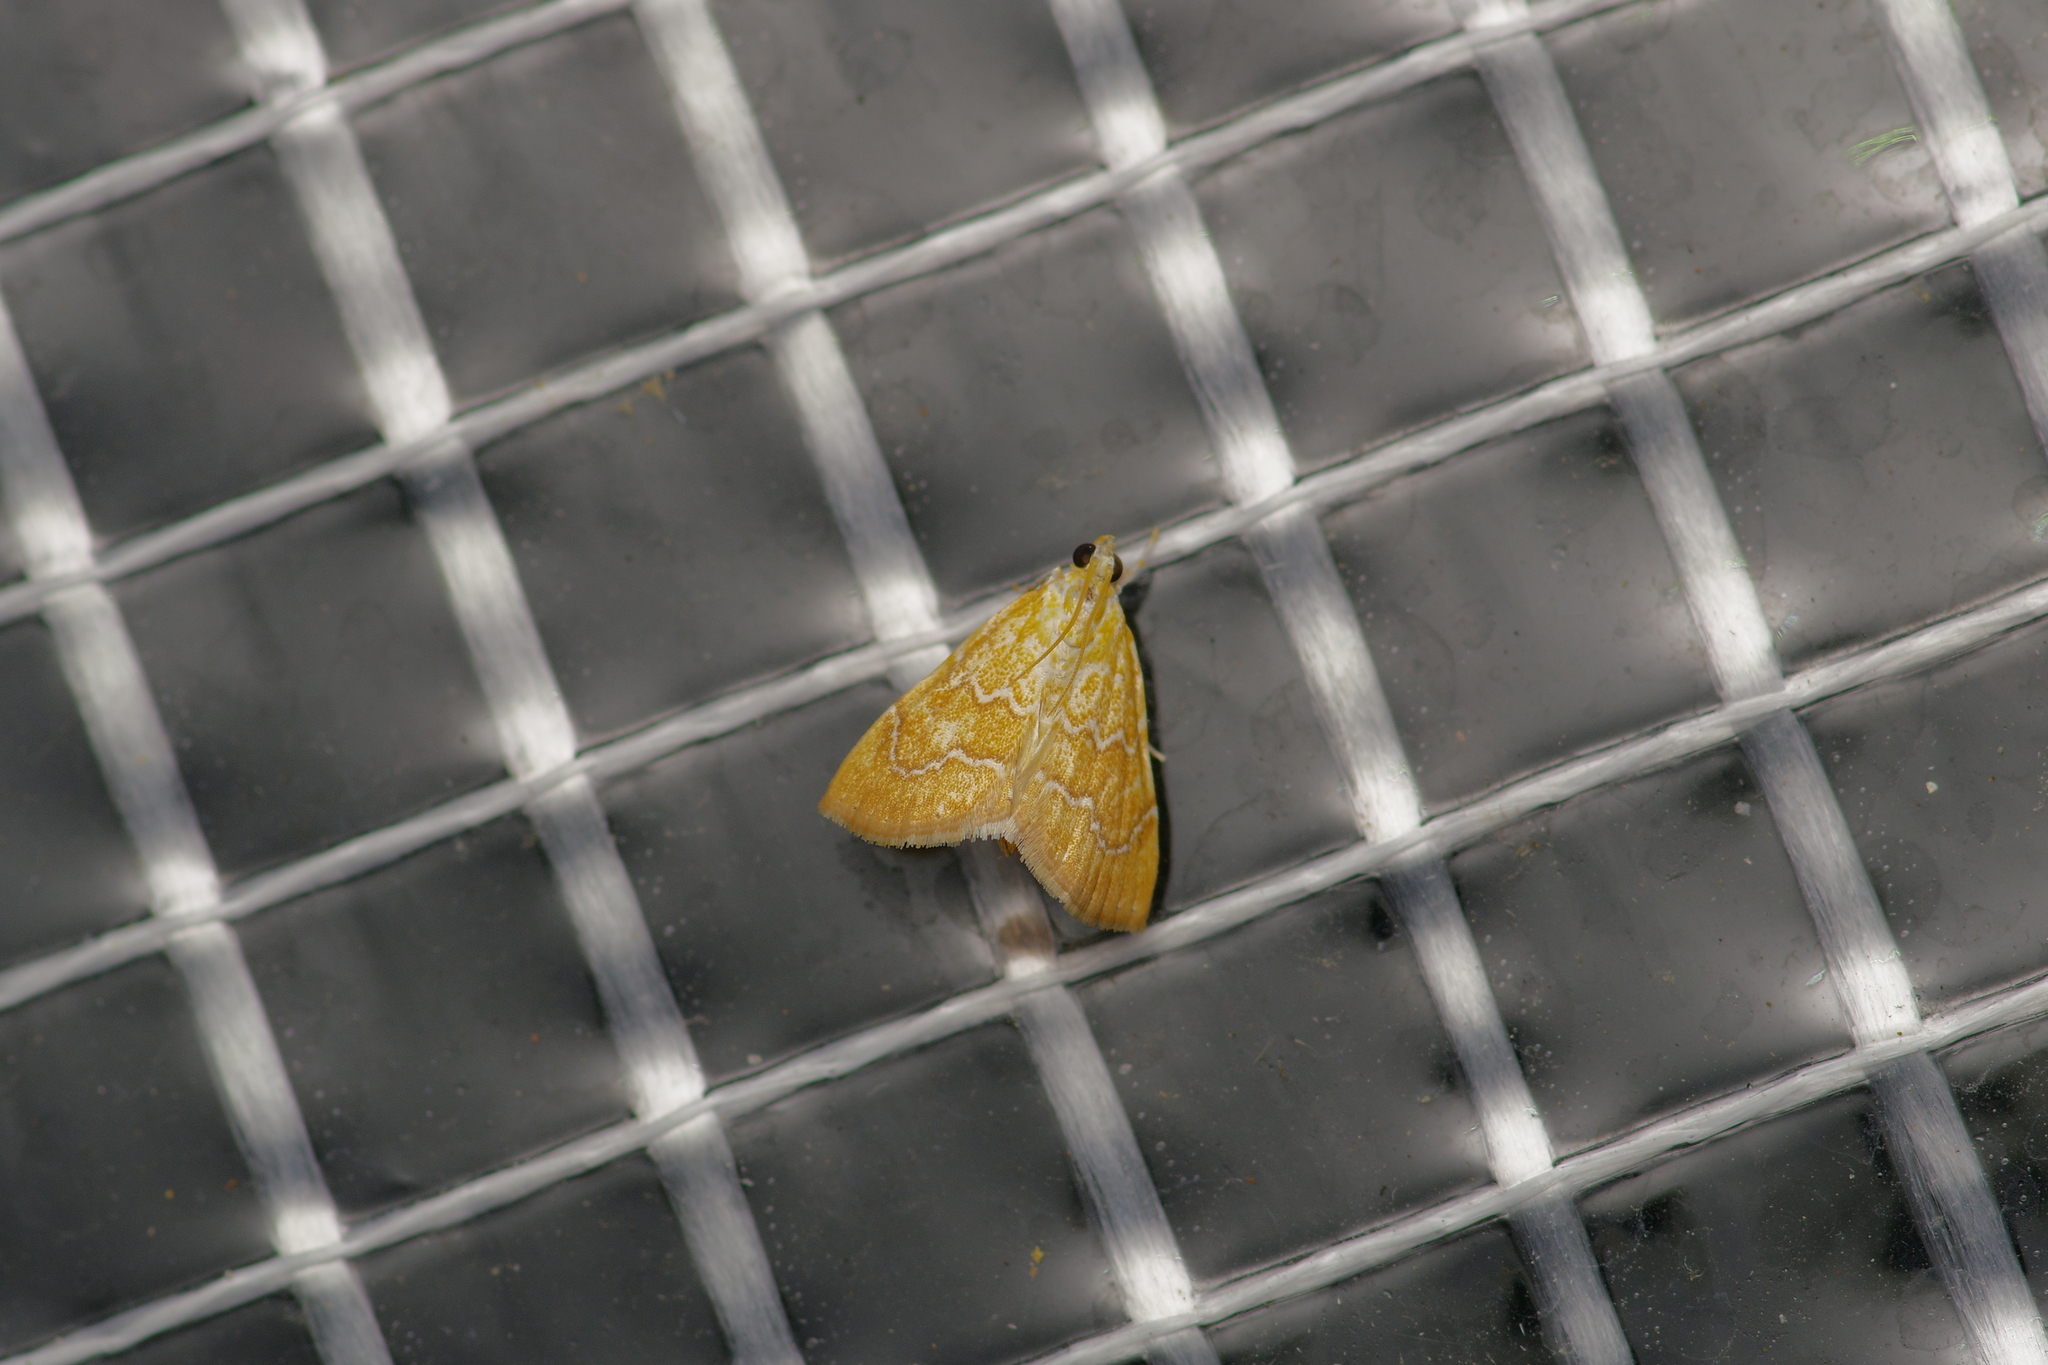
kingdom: Animalia
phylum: Arthropoda
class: Insecta
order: Lepidoptera
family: Crambidae
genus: Glaphyria
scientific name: Glaphyria sesquistrialis
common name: White-roped glaphyria
